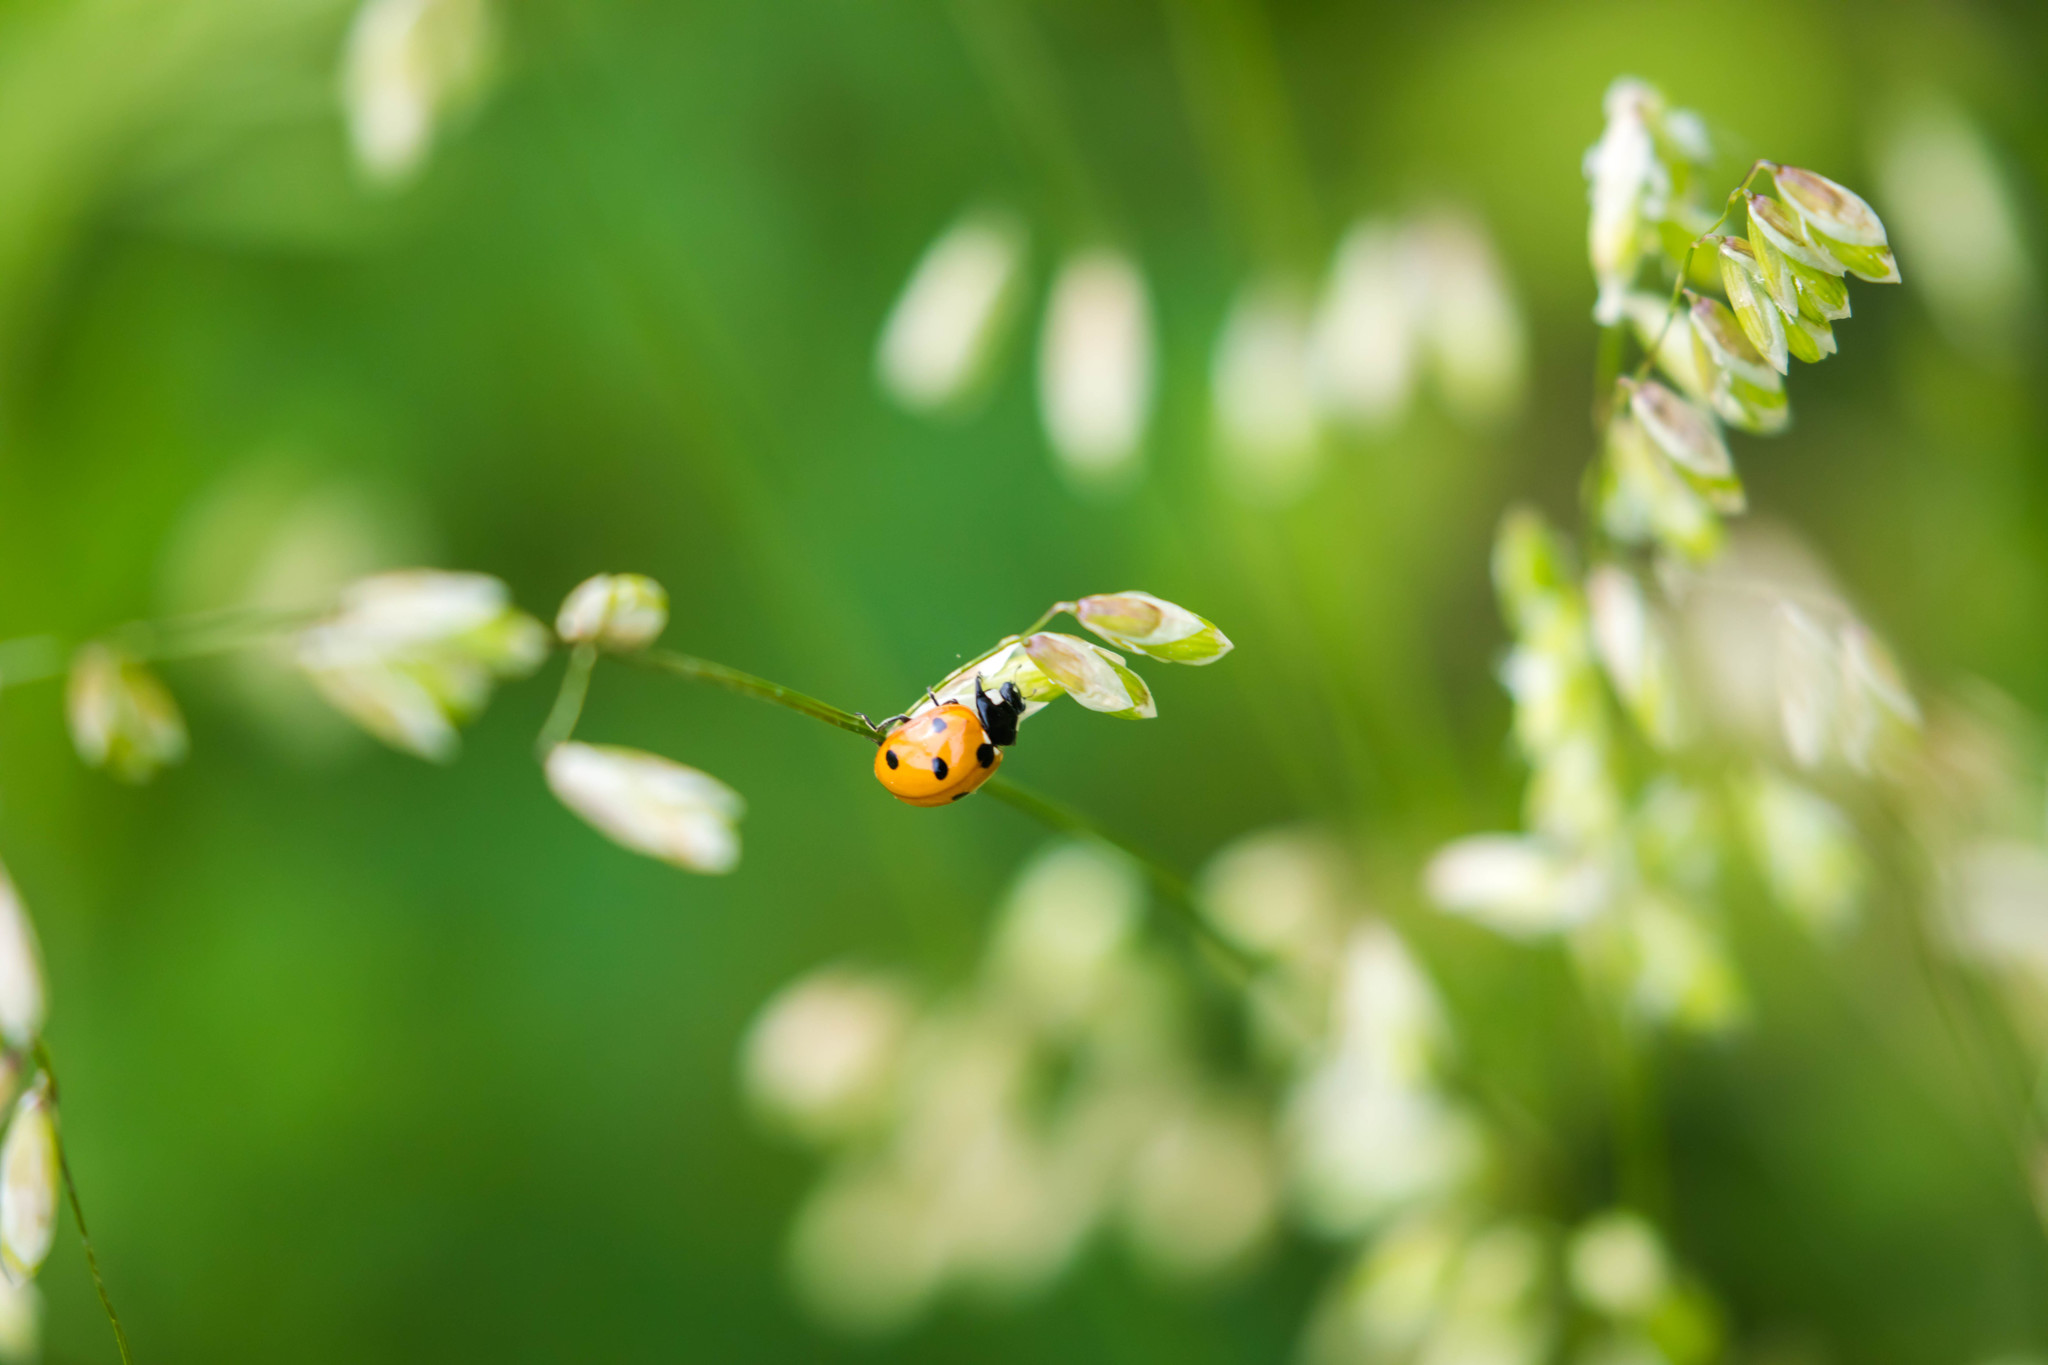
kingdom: Animalia
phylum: Arthropoda
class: Insecta
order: Coleoptera
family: Coccinellidae
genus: Coccinella
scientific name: Coccinella septempunctata
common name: Sevenspotted lady beetle
